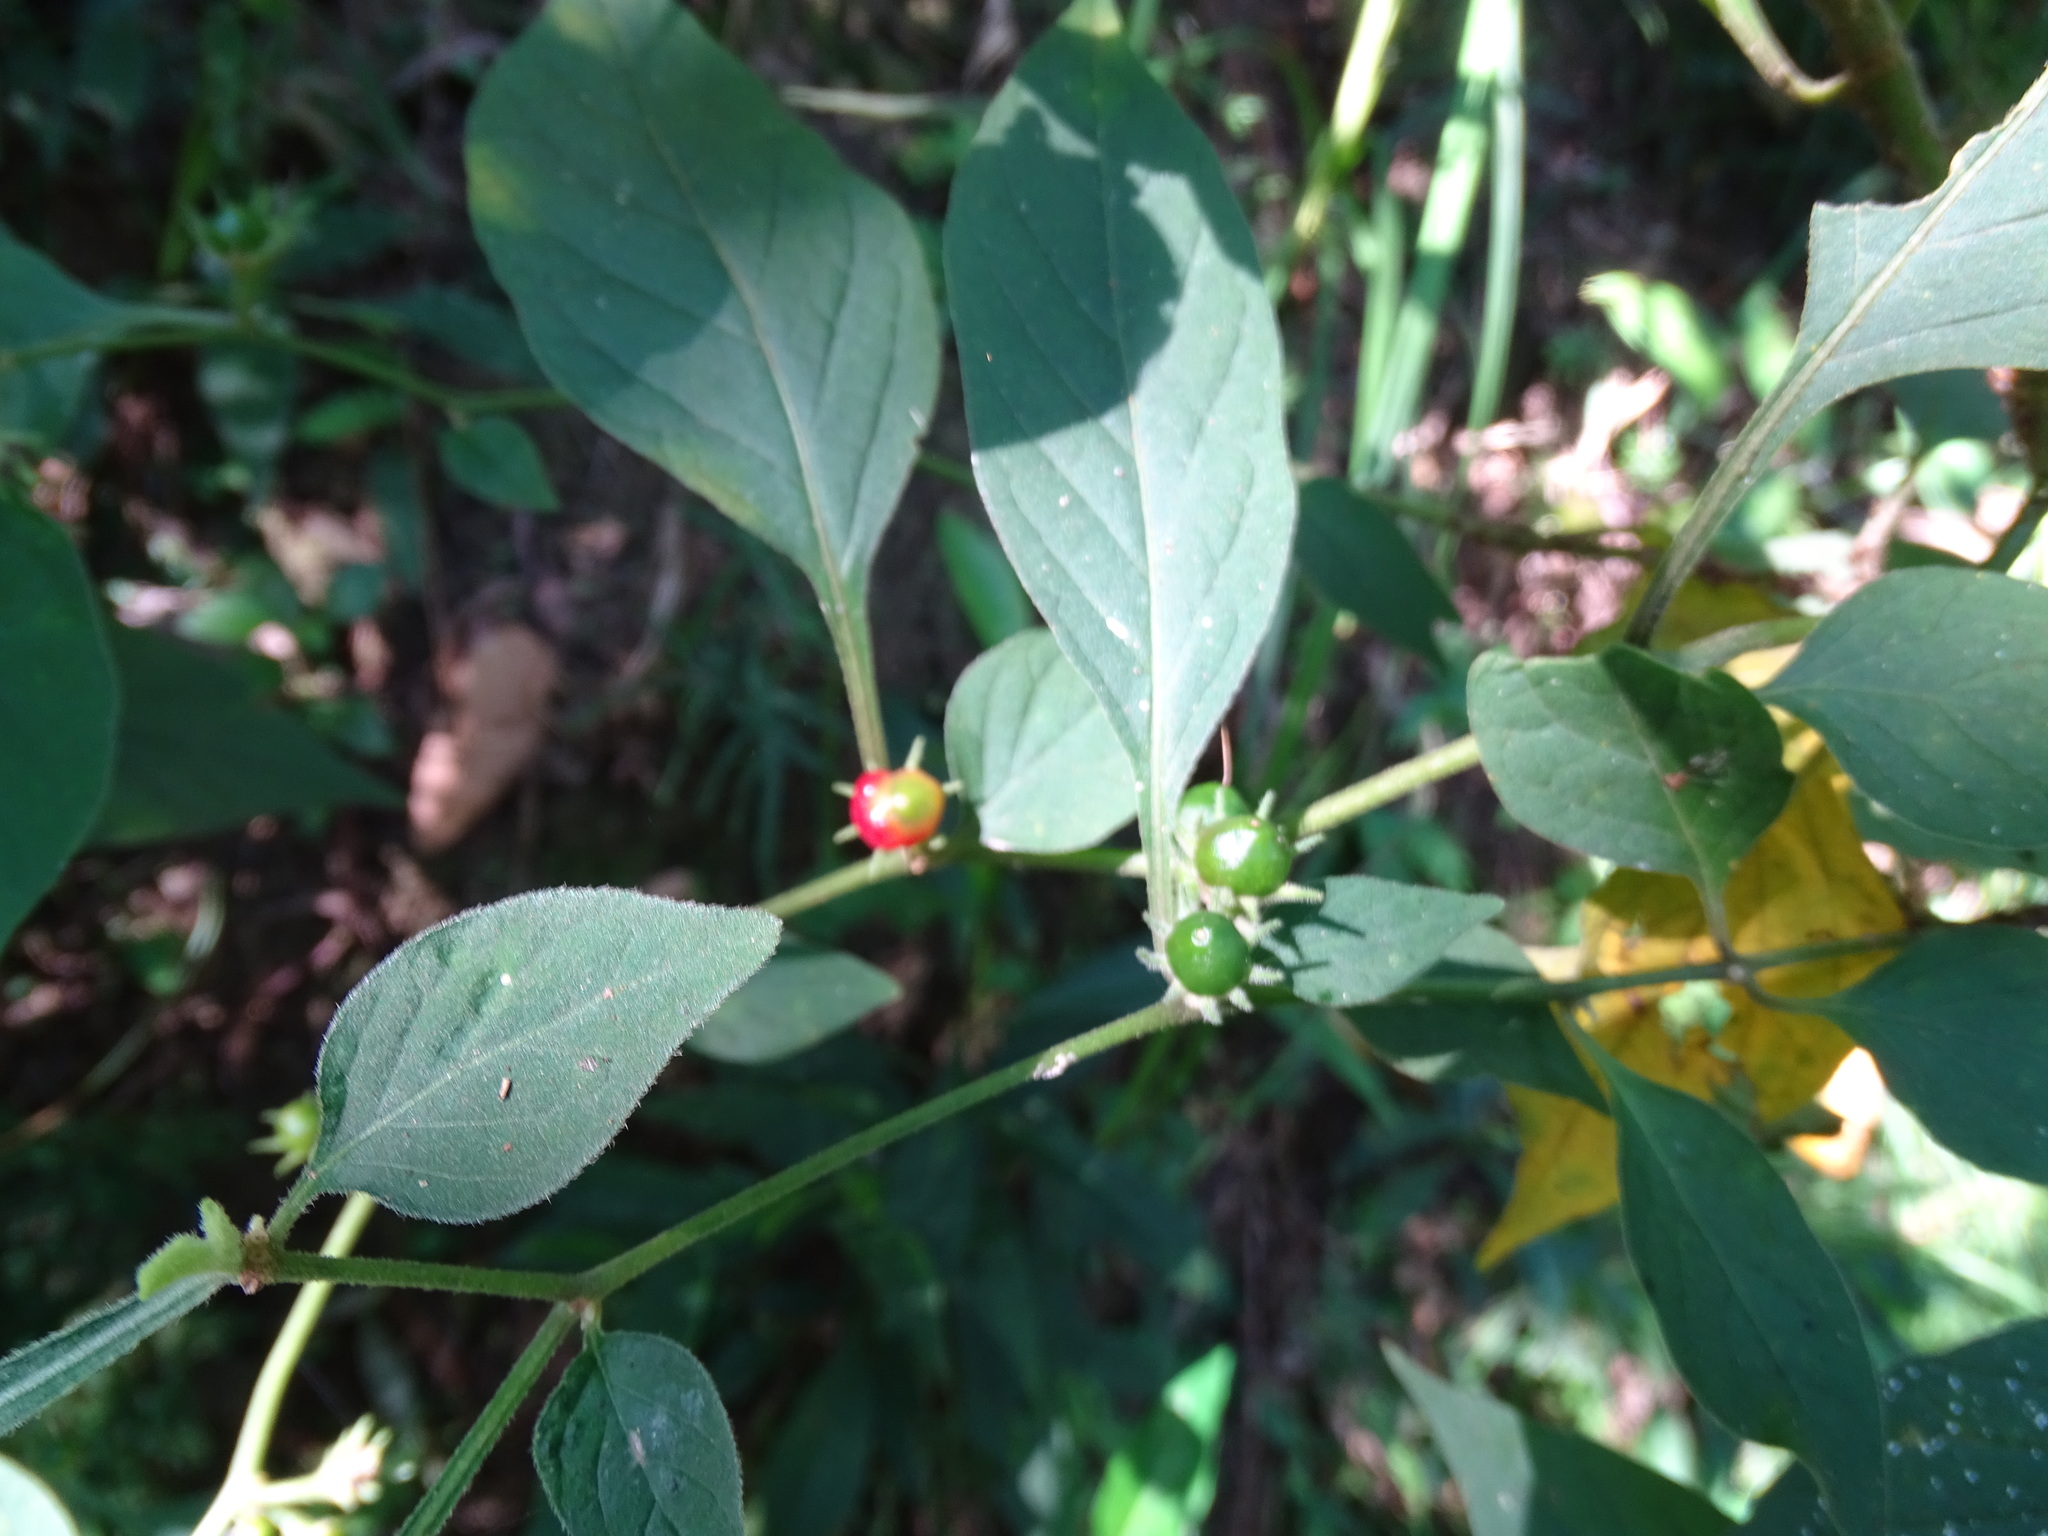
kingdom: Plantae
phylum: Tracheophyta
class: Magnoliopsida
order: Solanales
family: Solanaceae
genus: Lycianthes
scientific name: Lycianthes biflora
